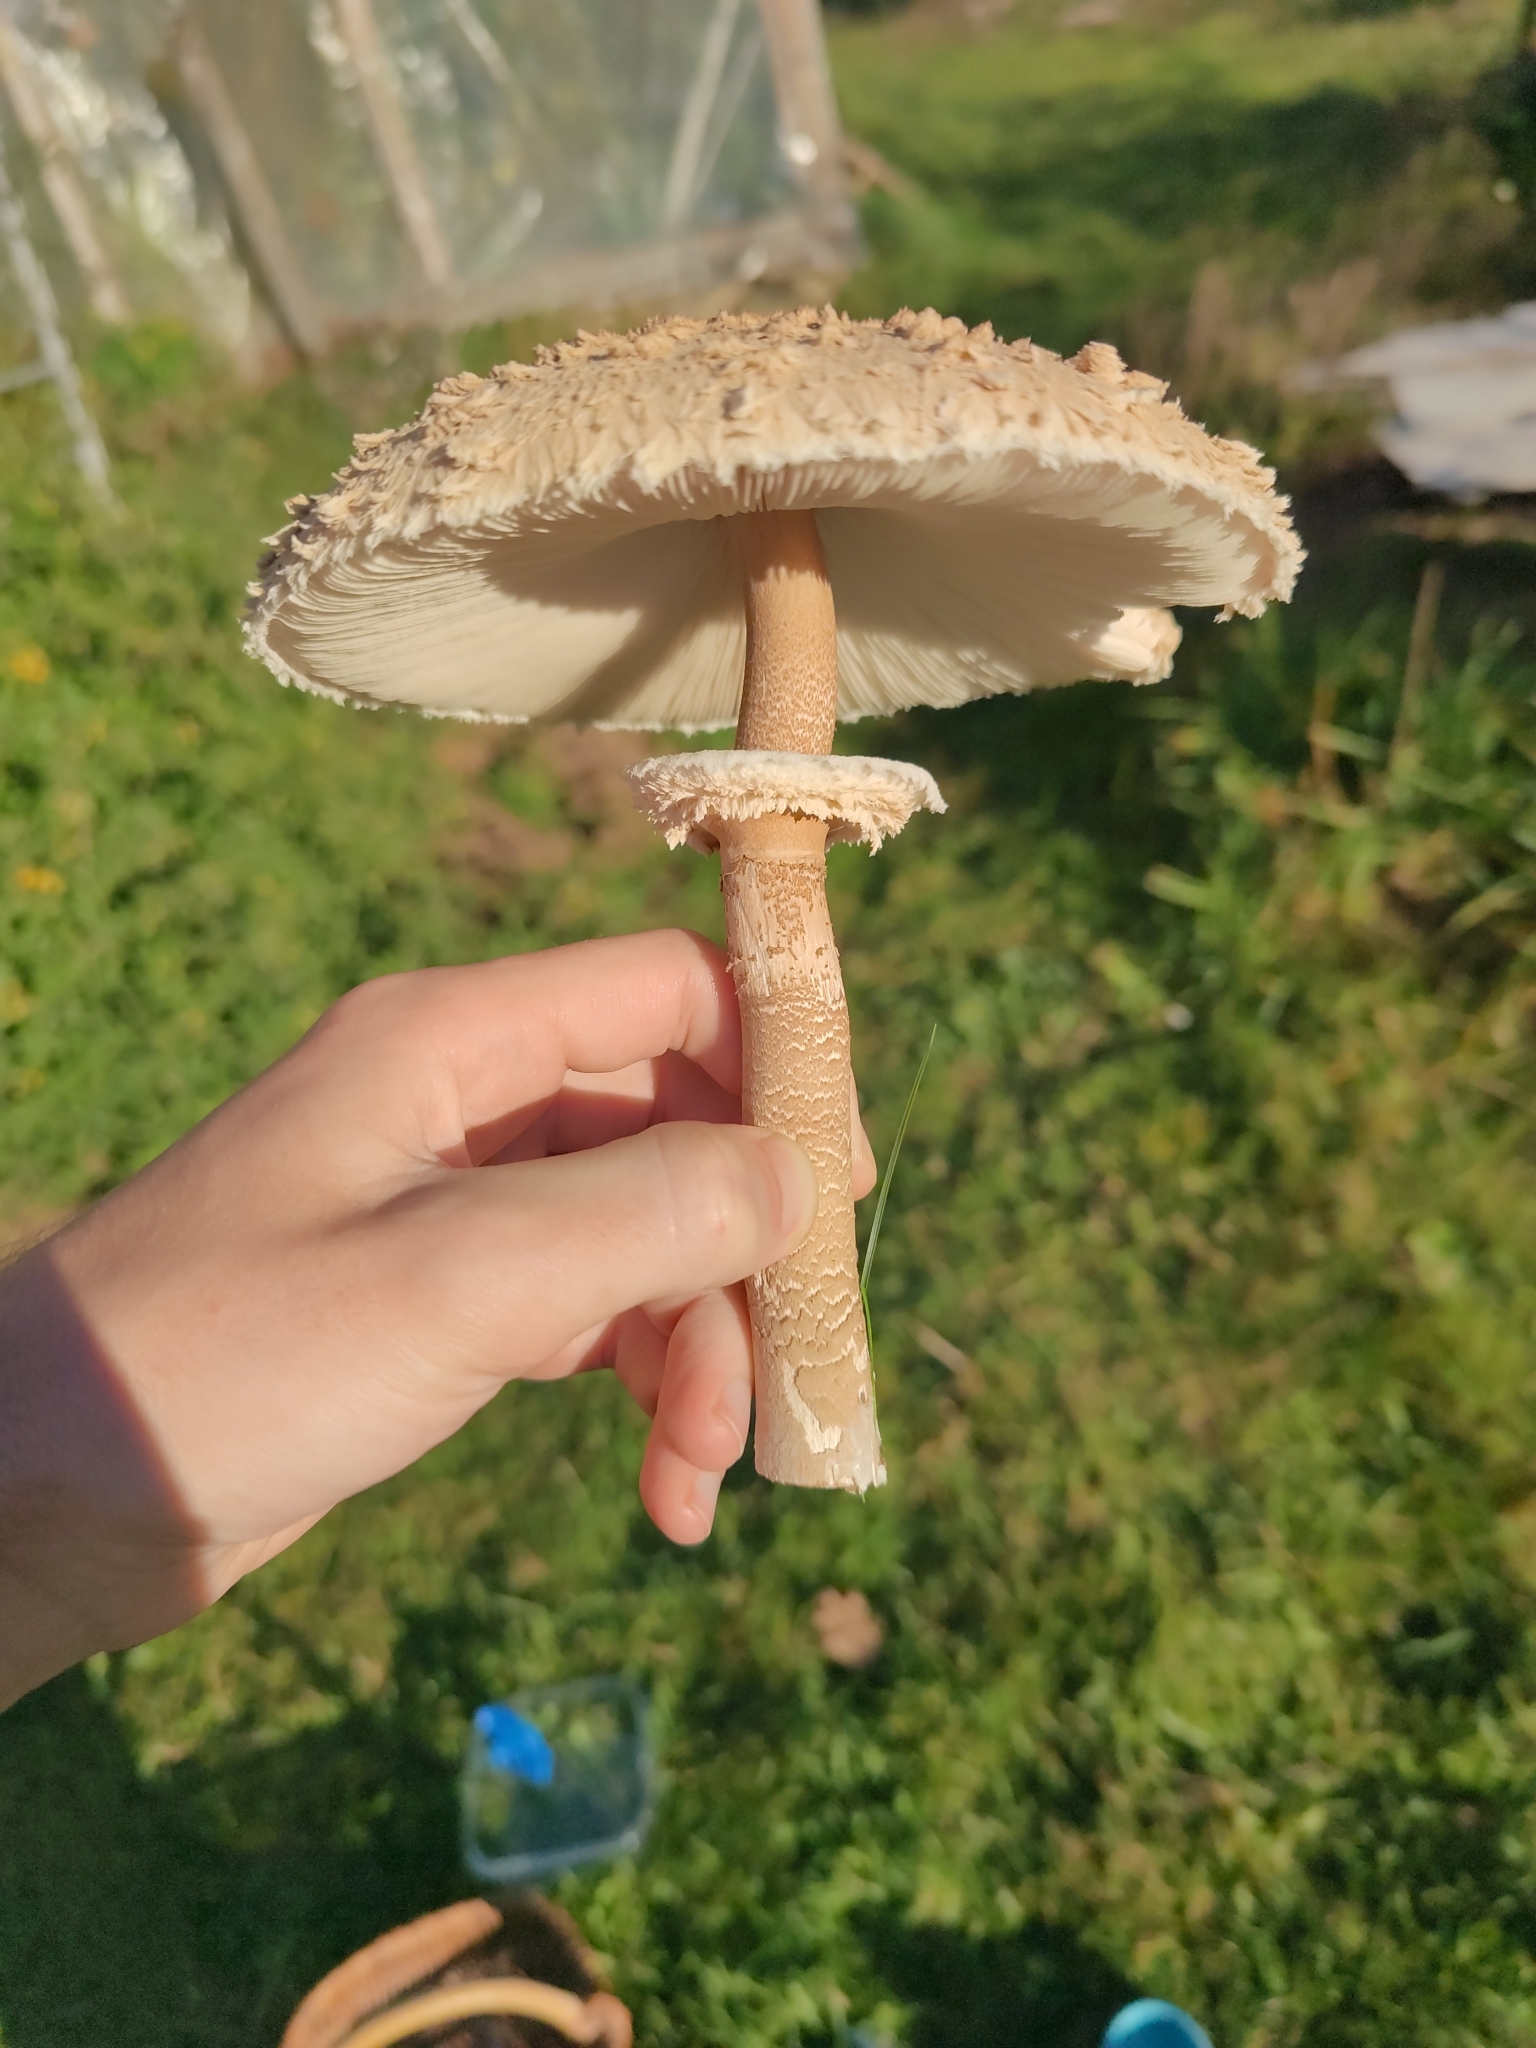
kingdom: Fungi
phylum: Basidiomycota
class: Agaricomycetes
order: Agaricales
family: Agaricaceae
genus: Macrolepiota
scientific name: Macrolepiota procera
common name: Parasol
